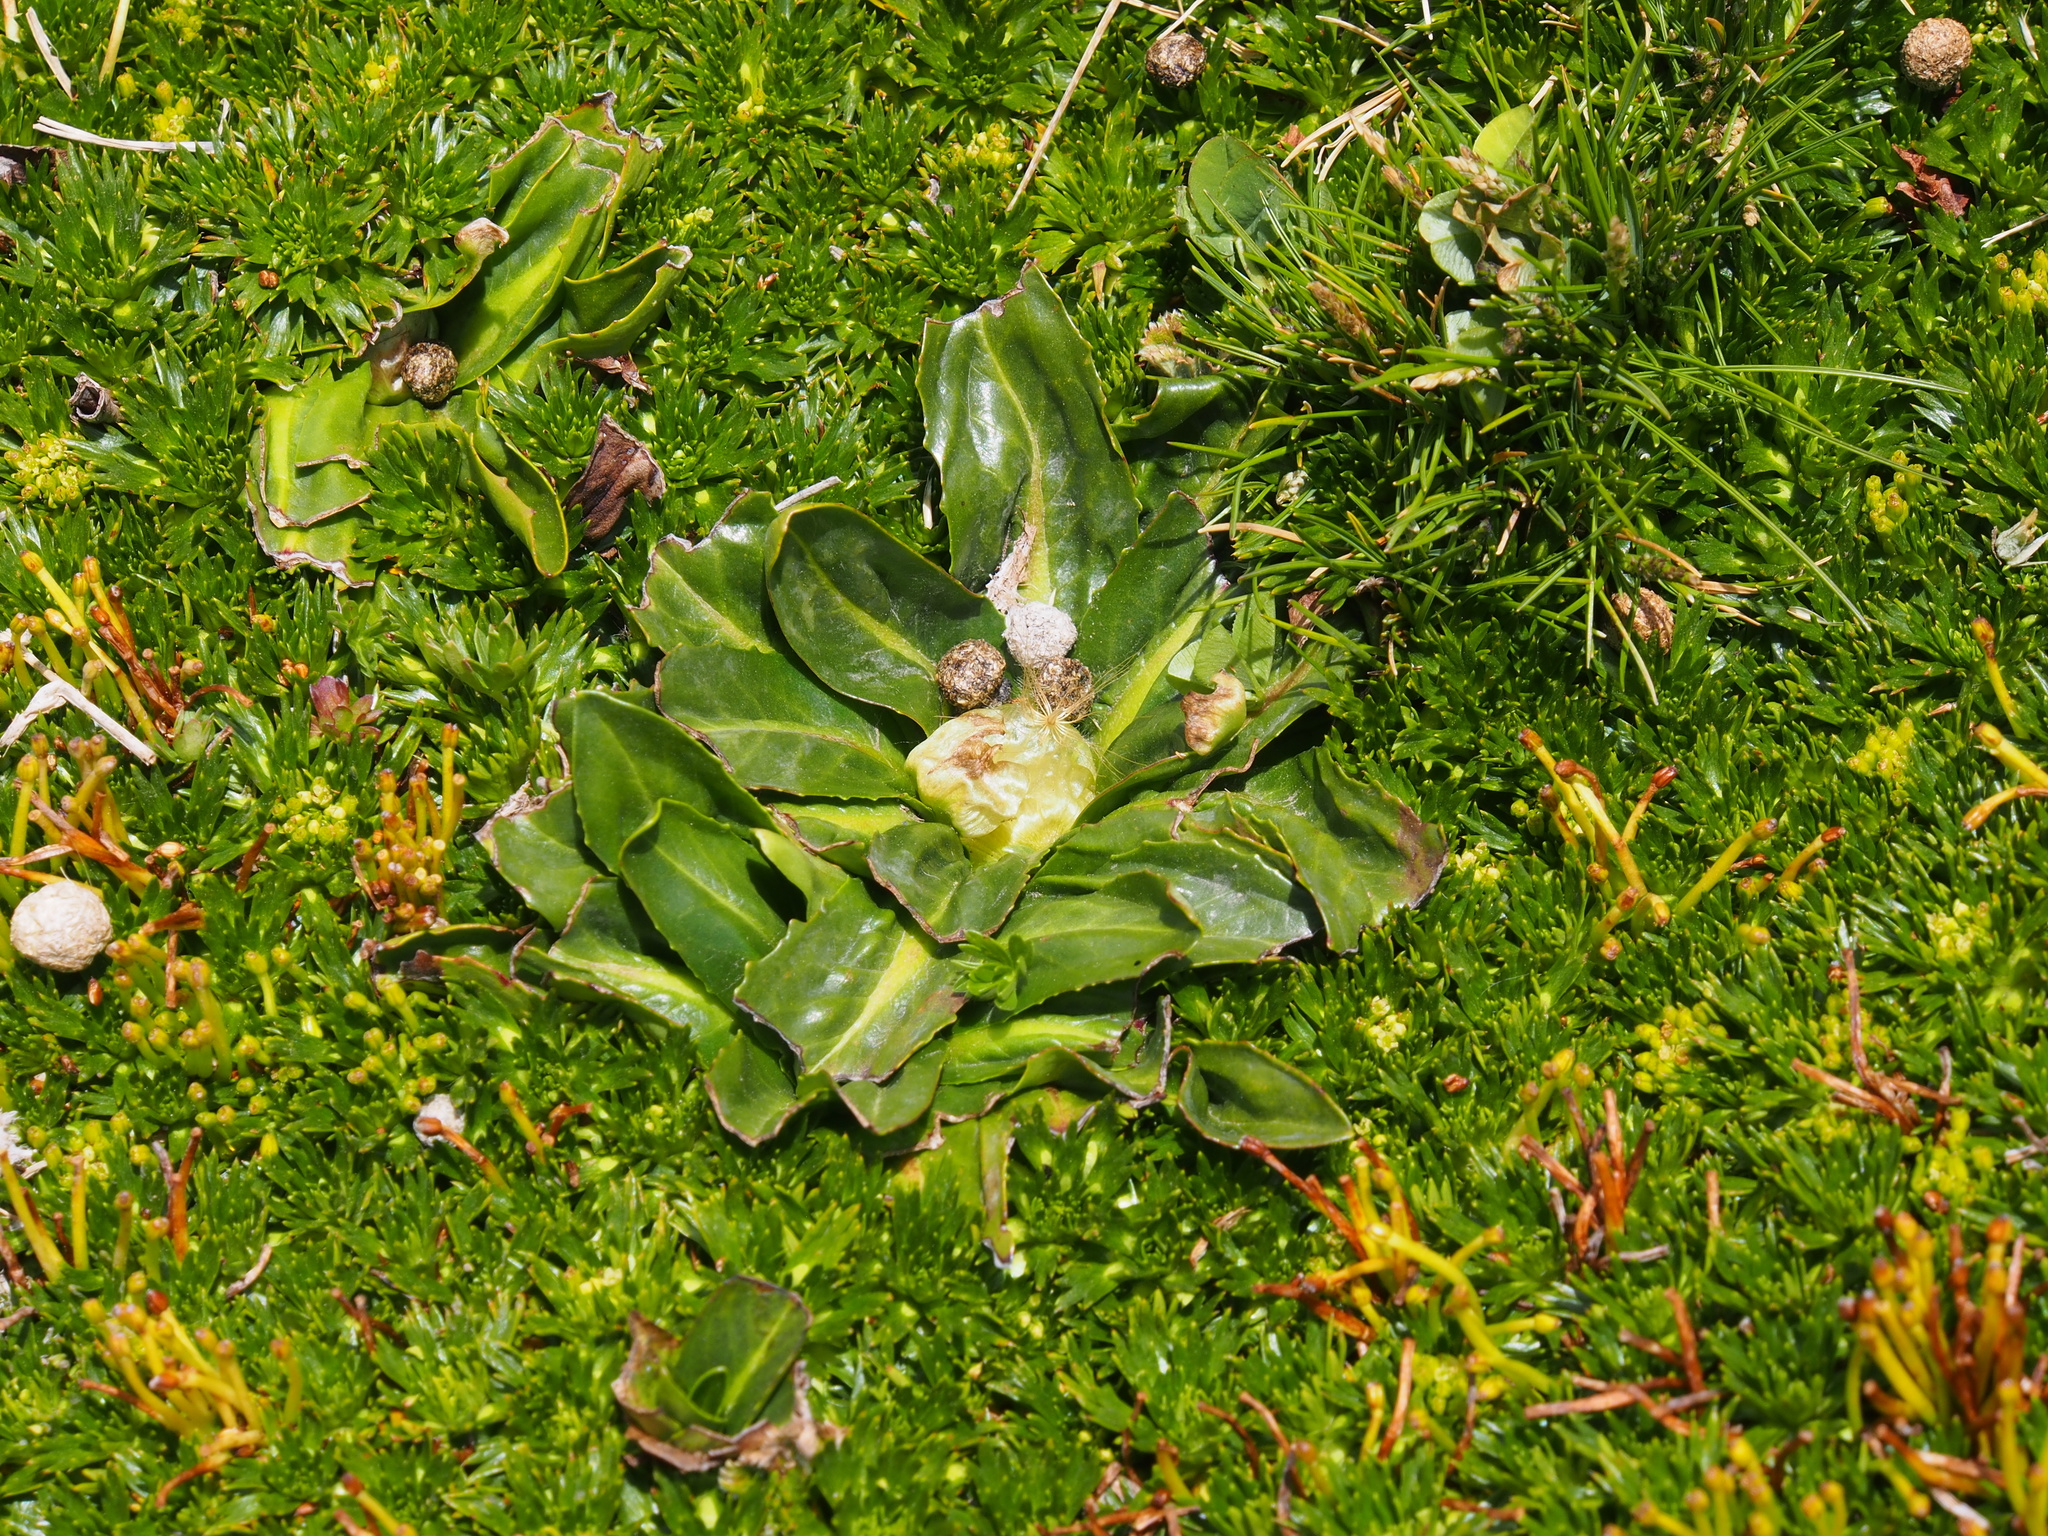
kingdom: Plantae
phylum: Tracheophyta
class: Magnoliopsida
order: Asterales
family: Asteraceae
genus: Hypochaeris
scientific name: Hypochaeris sessiliflora
